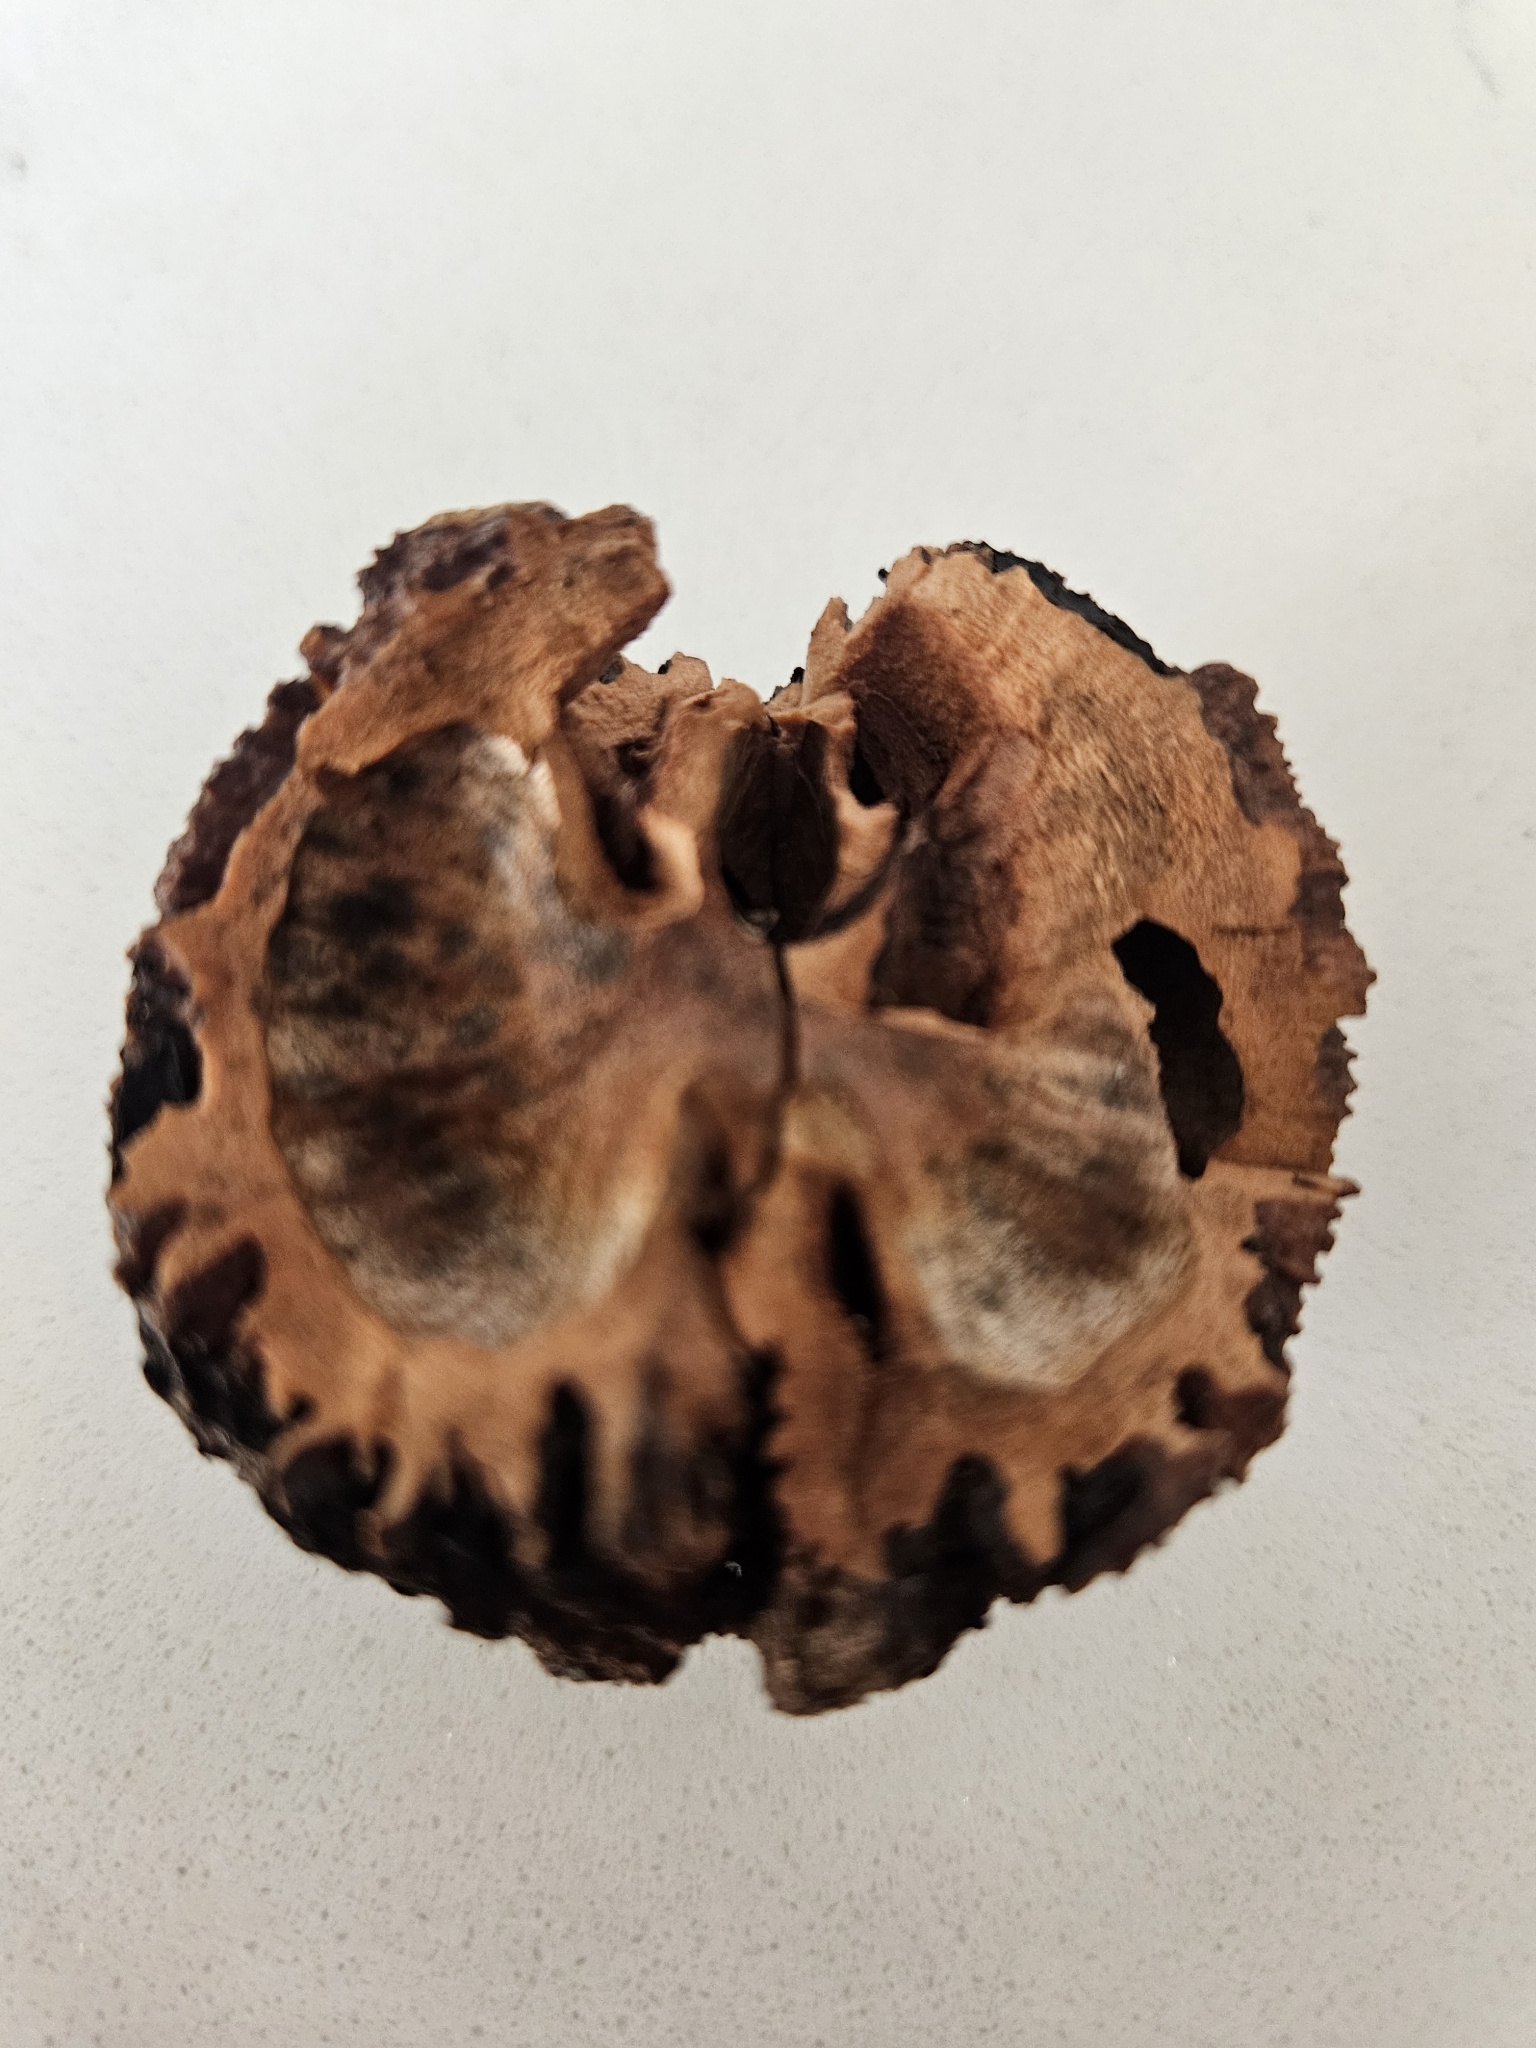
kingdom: Plantae
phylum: Tracheophyta
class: Magnoliopsida
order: Fagales
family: Juglandaceae
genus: Juglans
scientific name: Juglans nigra
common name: Black walnut
